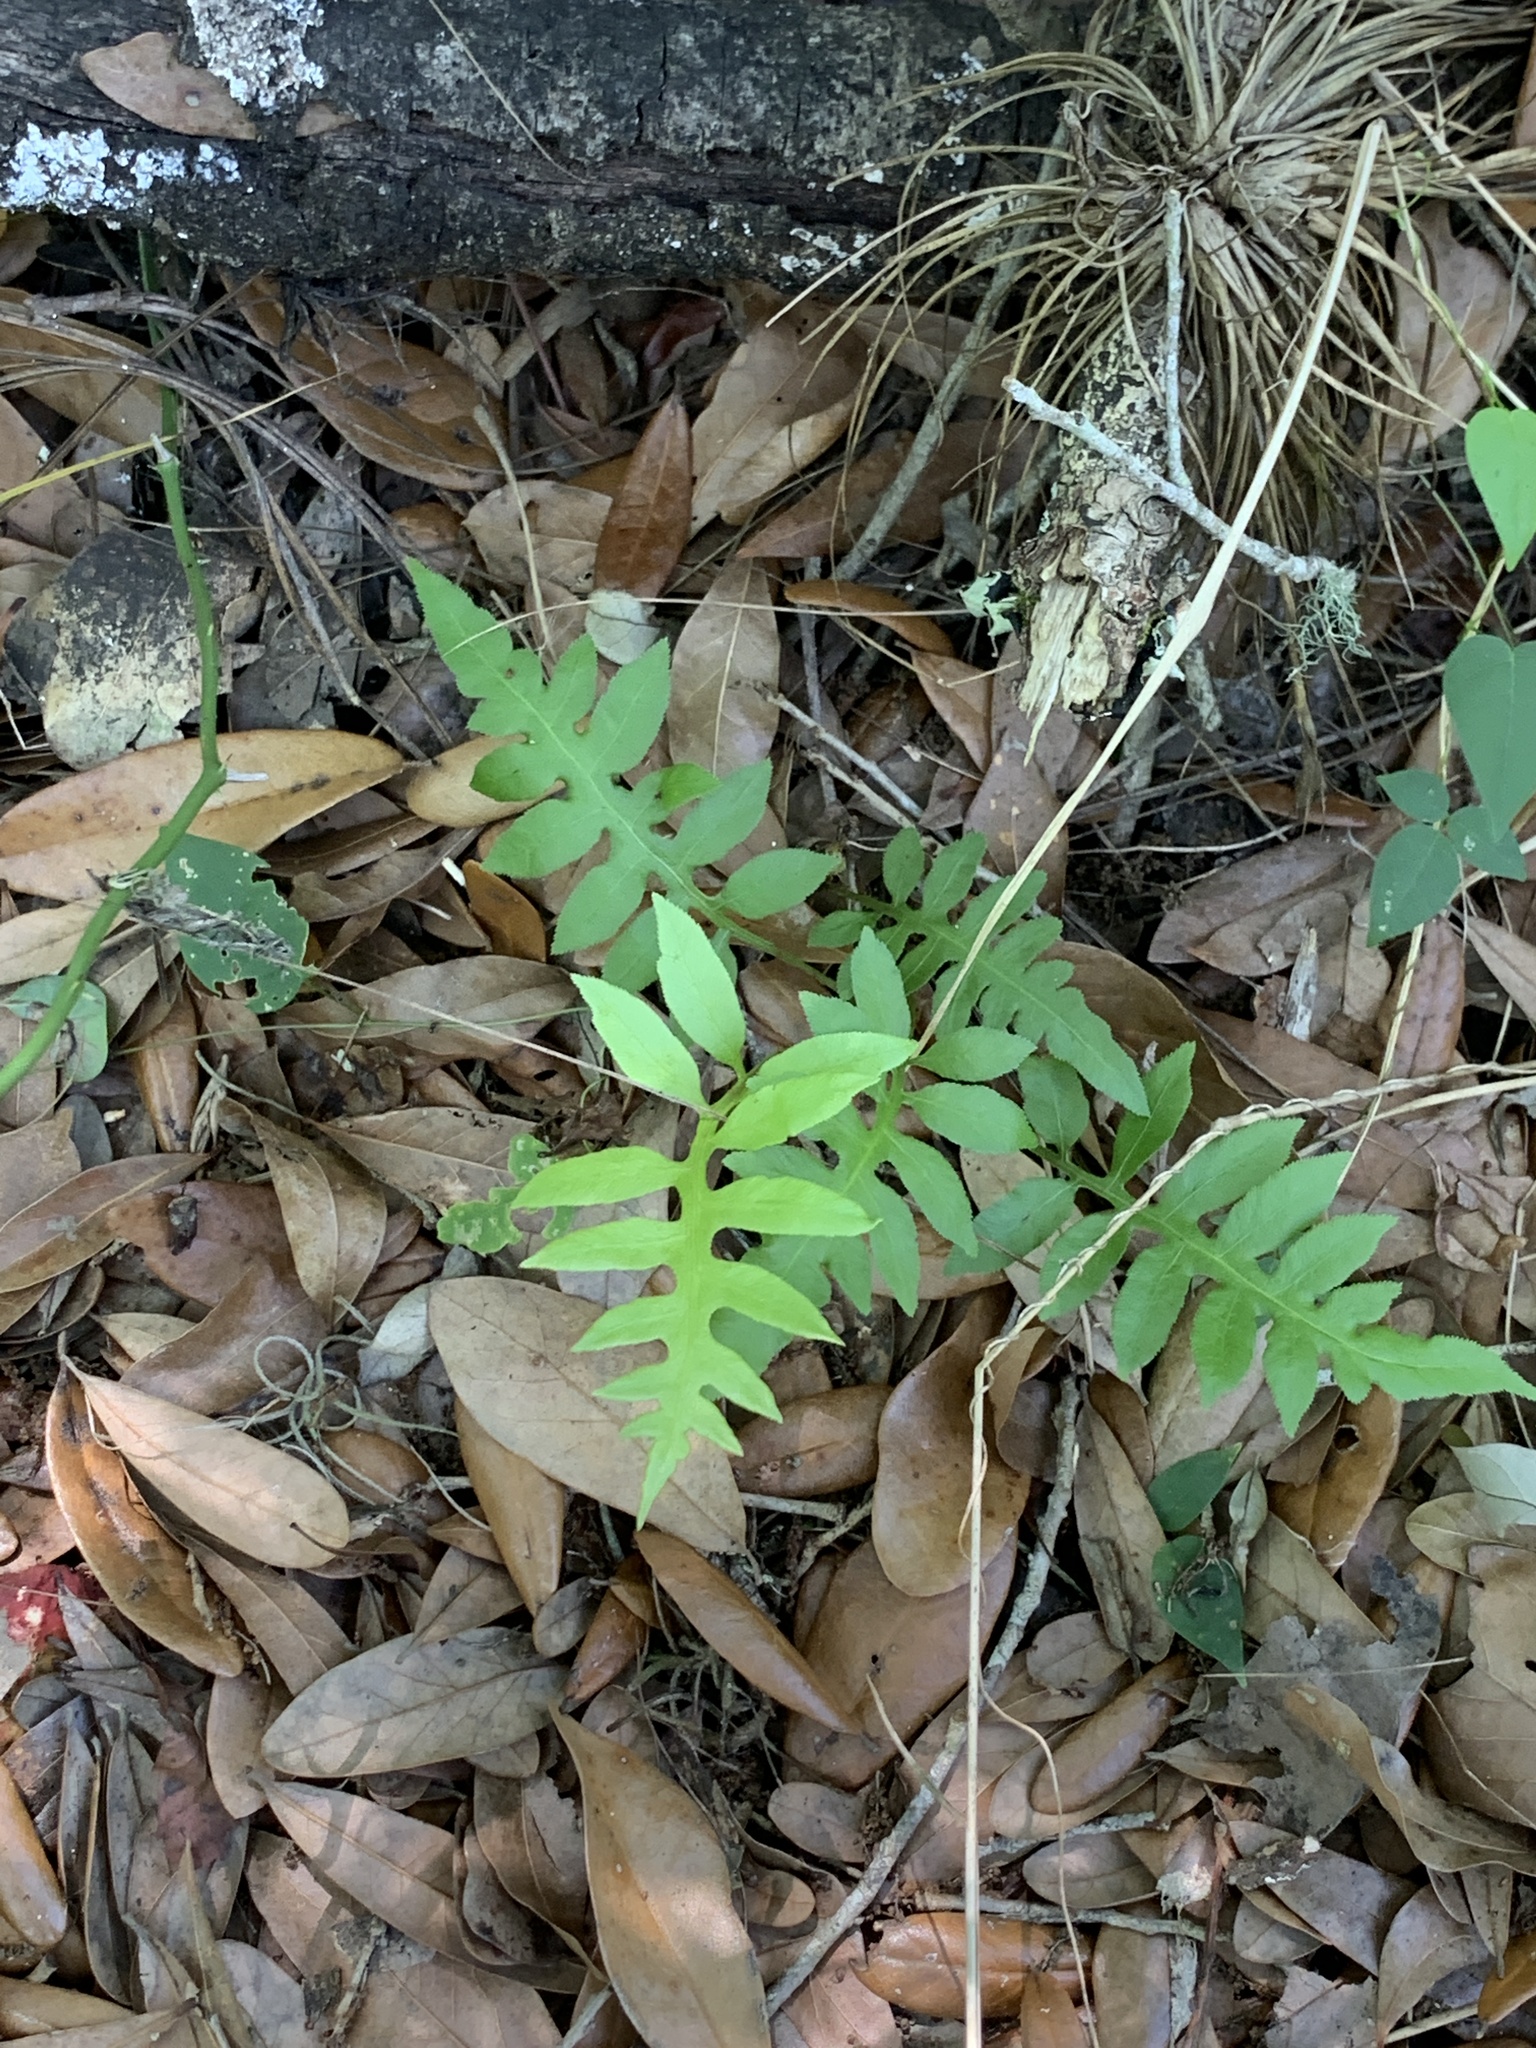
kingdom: Plantae
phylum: Tracheophyta
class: Polypodiopsida
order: Polypodiales
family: Blechnaceae
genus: Lorinseria
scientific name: Lorinseria areolata
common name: Dwarf chain fern
